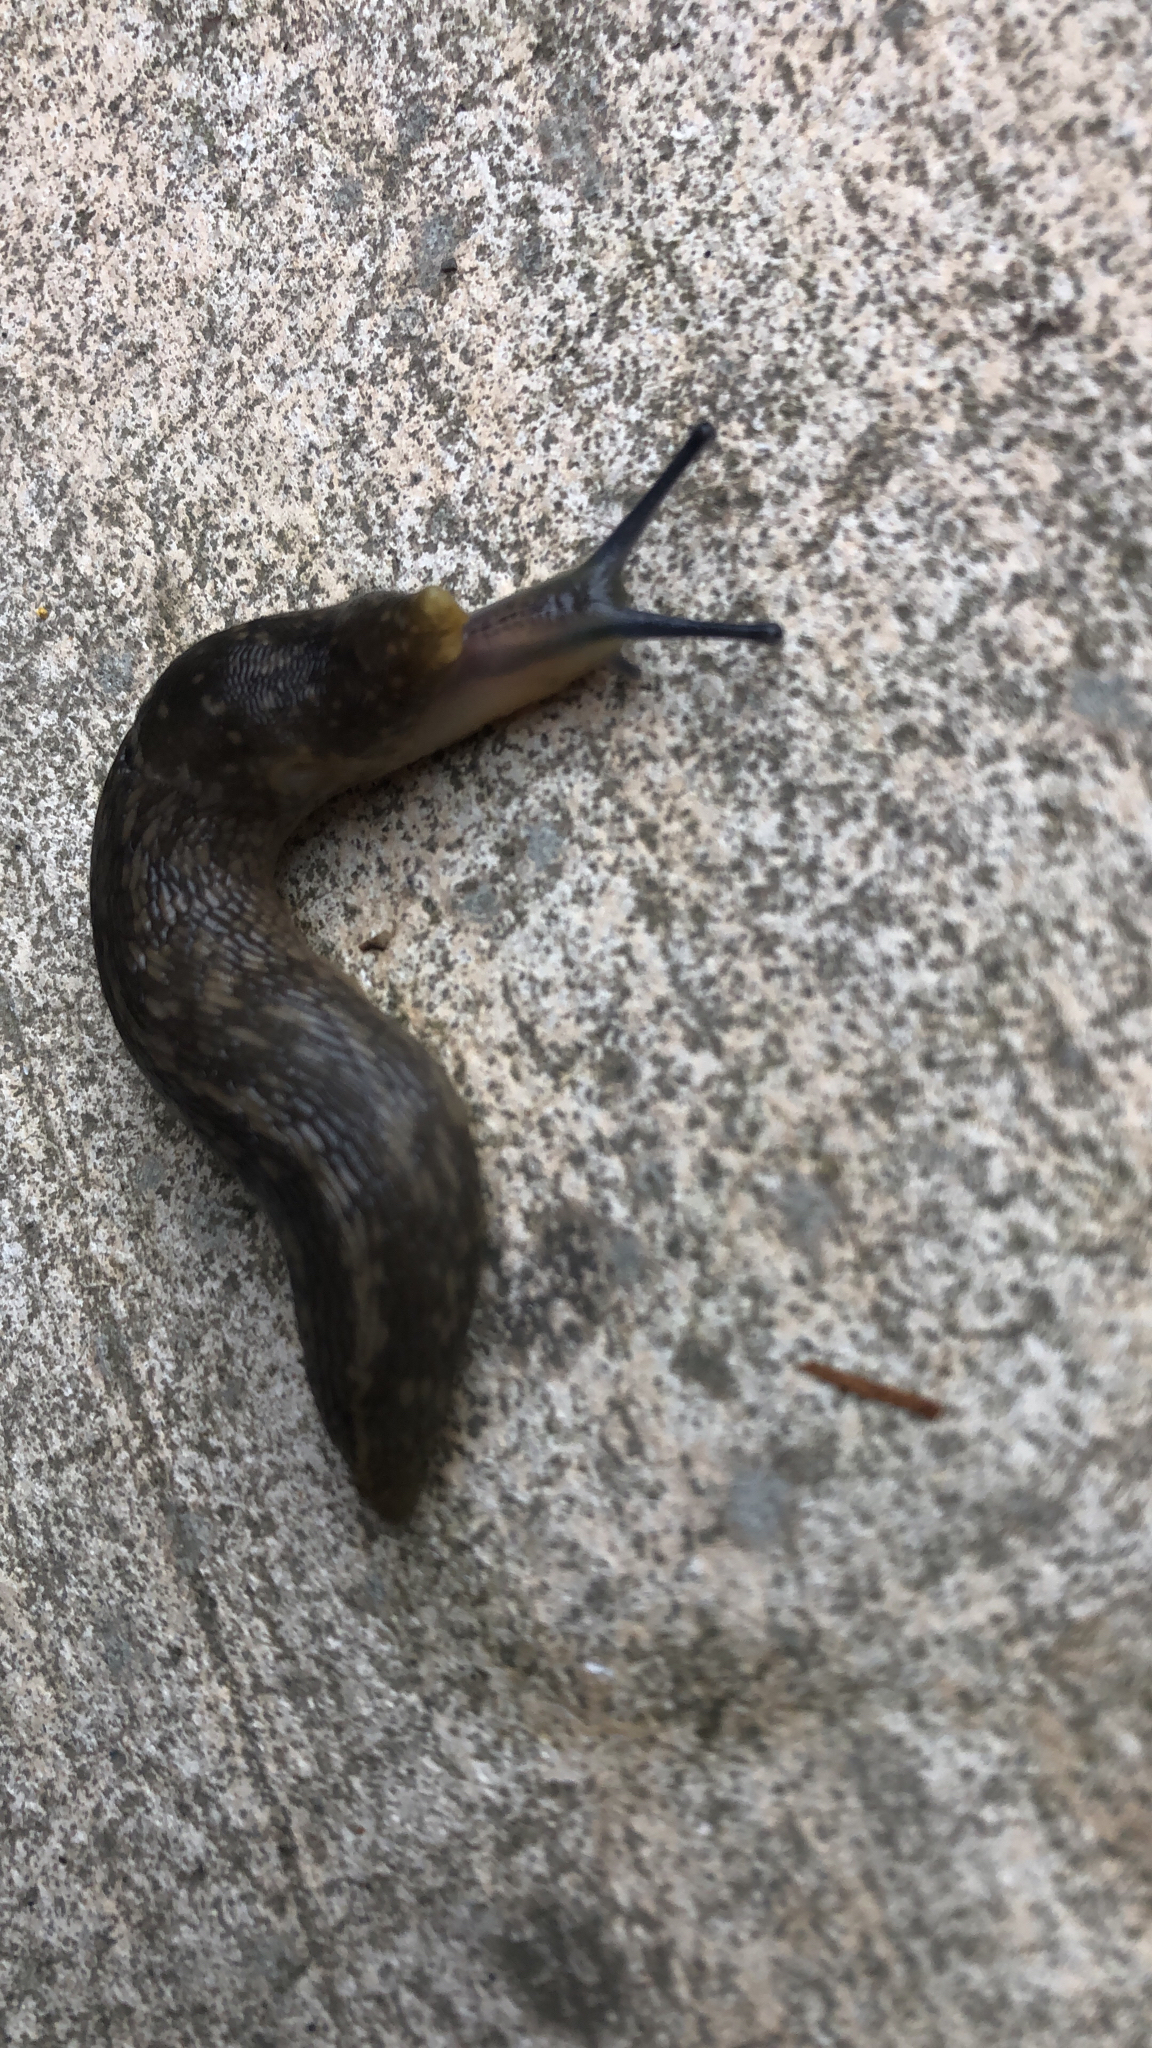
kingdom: Animalia
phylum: Mollusca
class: Gastropoda
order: Stylommatophora
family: Limacidae
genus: Limacus
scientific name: Limacus flavus
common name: Yellow gardenslug
